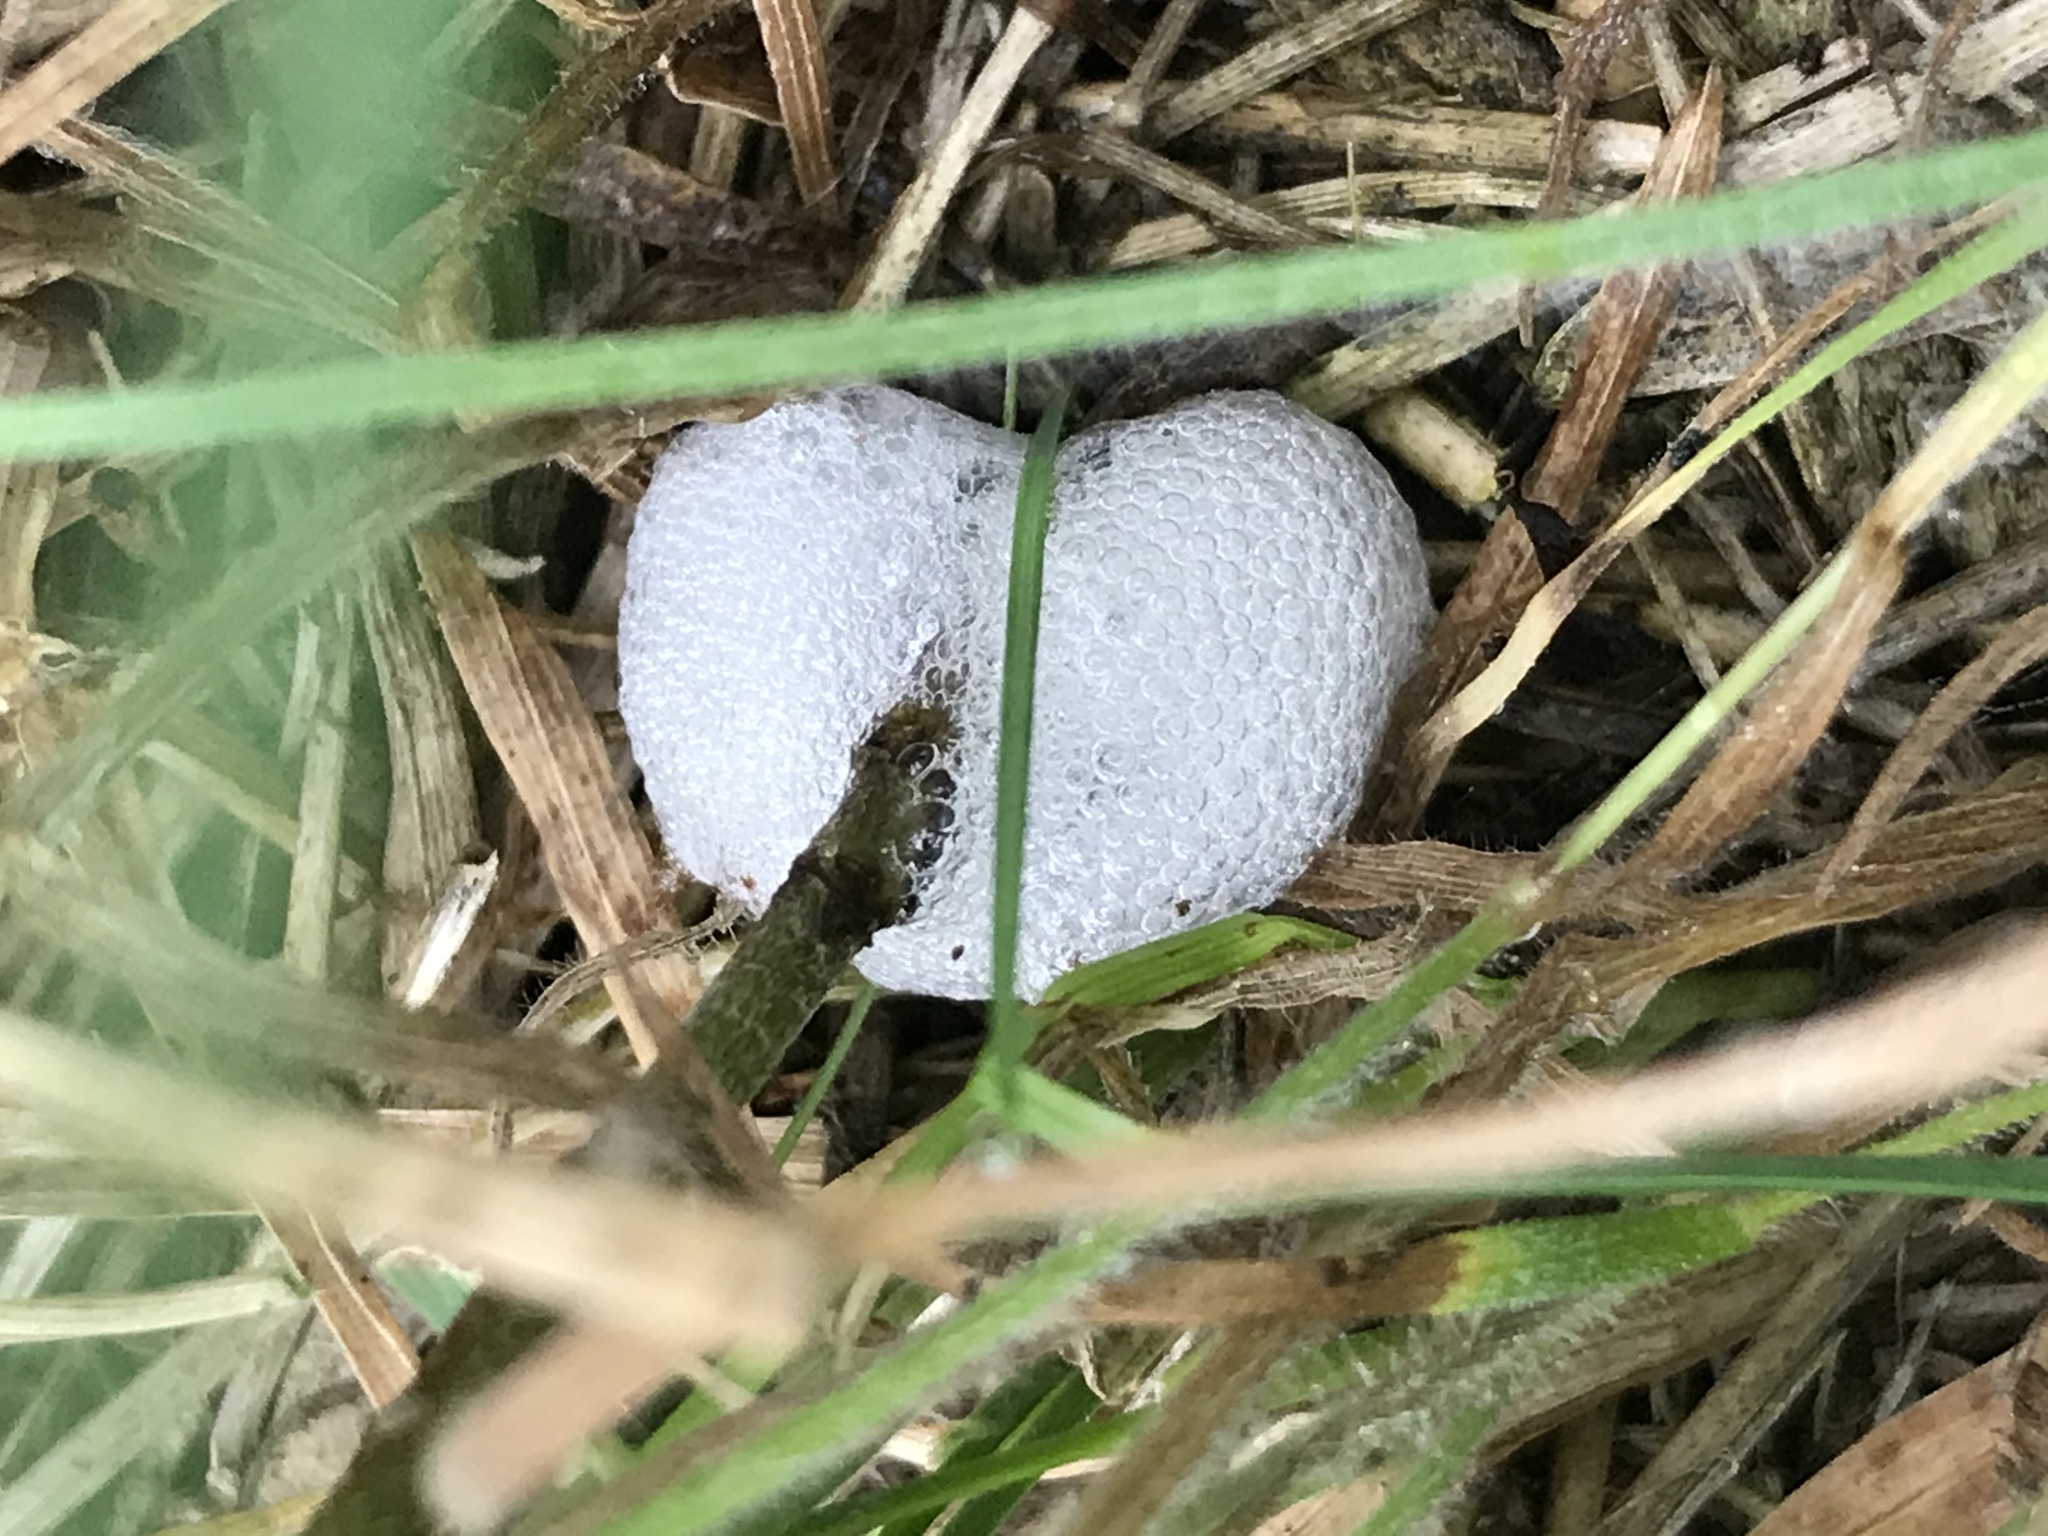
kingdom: Animalia
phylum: Arthropoda
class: Insecta
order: Hemiptera
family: Aphrophoridae
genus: Lepyronia
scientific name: Lepyronia gibbosa
